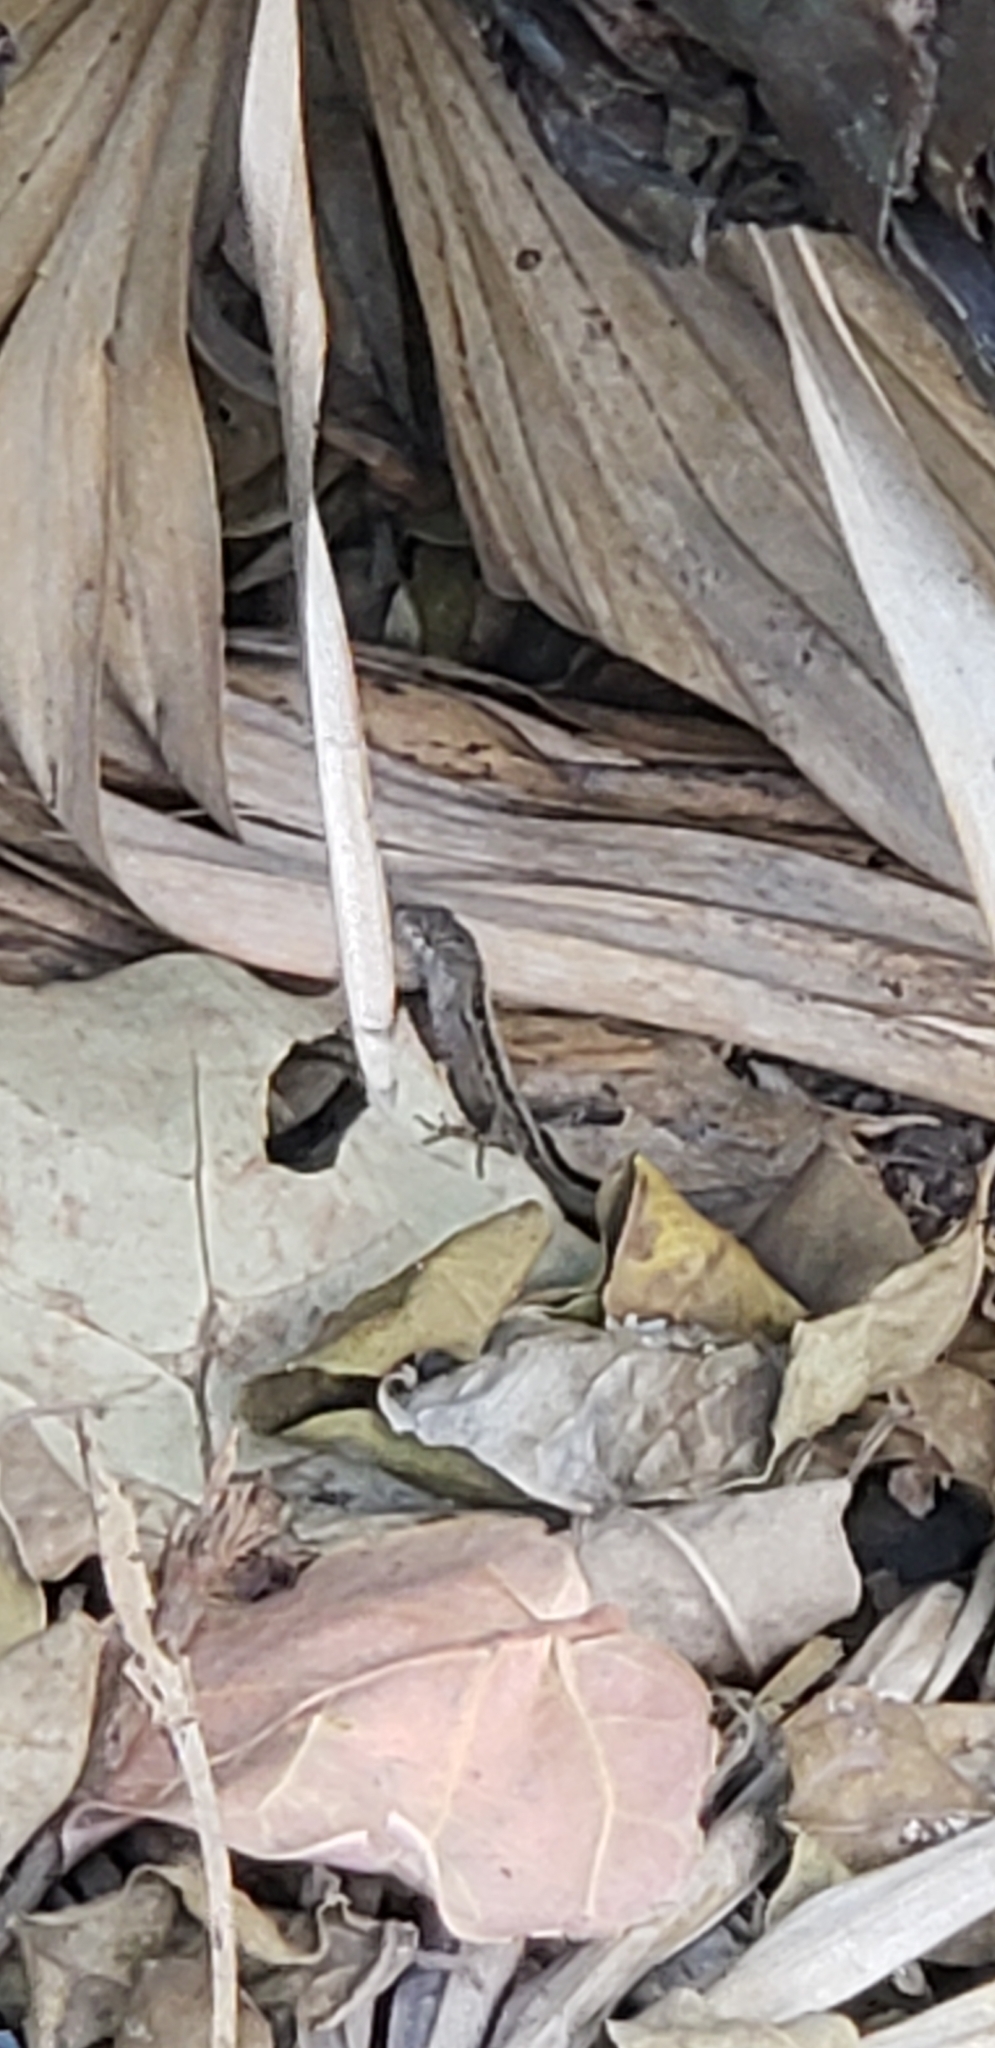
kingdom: Animalia
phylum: Chordata
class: Squamata
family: Dactyloidae
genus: Anolis
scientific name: Anolis sagrei
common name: Brown anole
